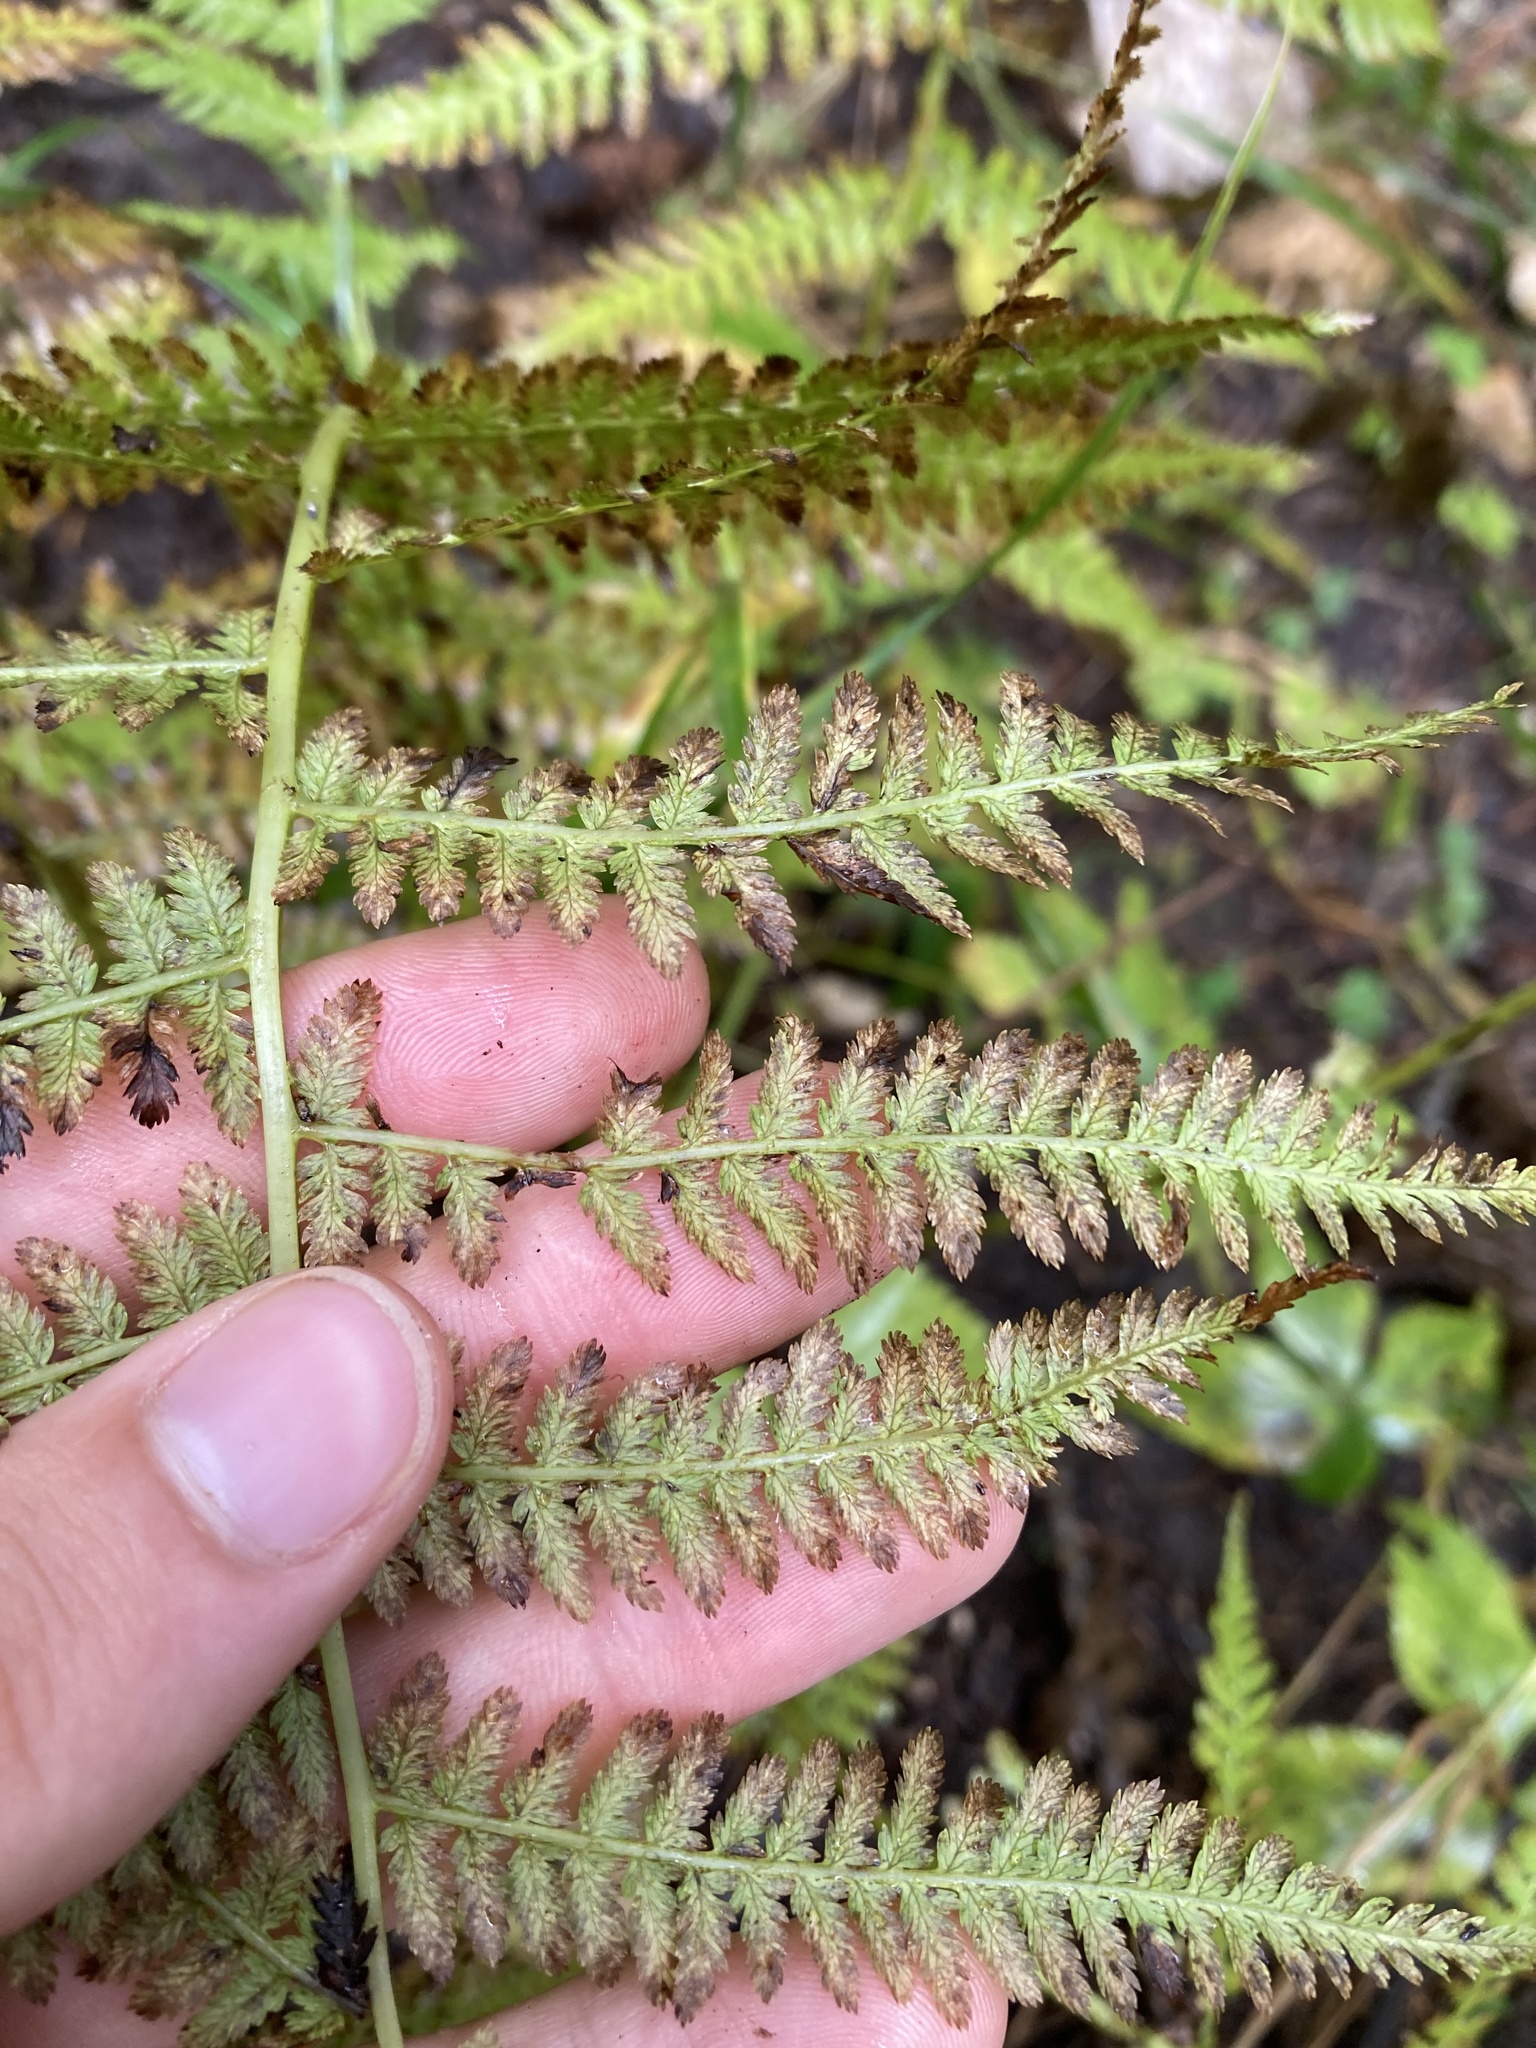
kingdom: Plantae
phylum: Tracheophyta
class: Polypodiopsida
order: Polypodiales
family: Athyriaceae
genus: Athyrium
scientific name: Athyrium filix-femina
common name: Lady fern
